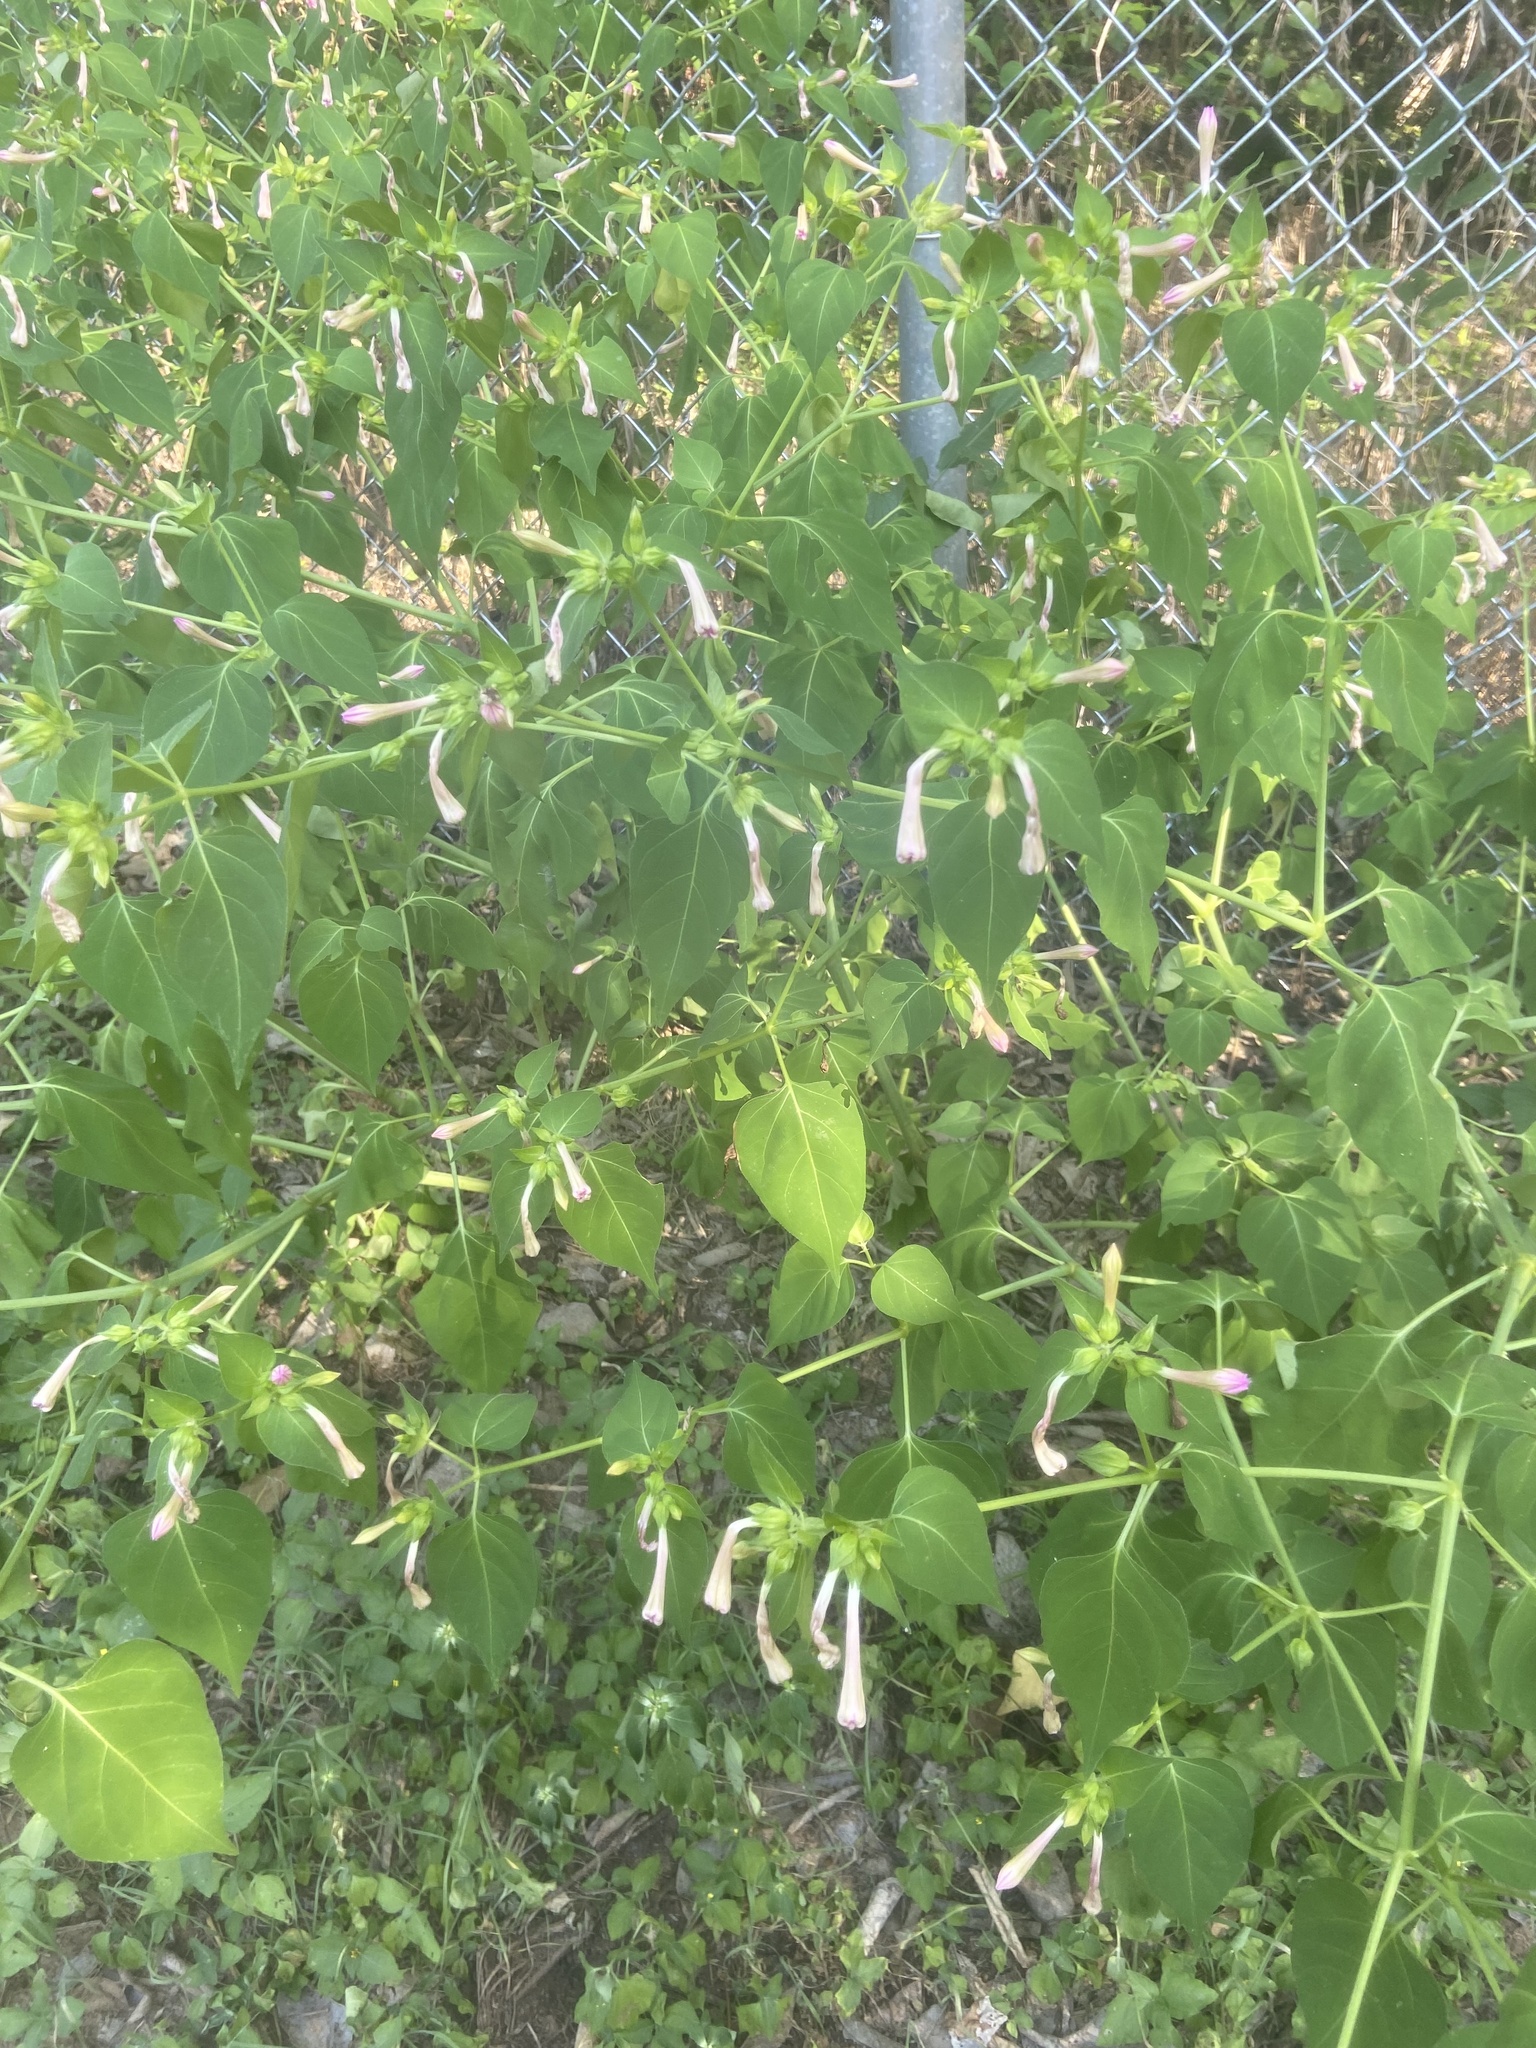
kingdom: Plantae
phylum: Tracheophyta
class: Magnoliopsida
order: Caryophyllales
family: Nyctaginaceae
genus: Mirabilis
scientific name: Mirabilis jalapa
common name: Marvel-of-peru
